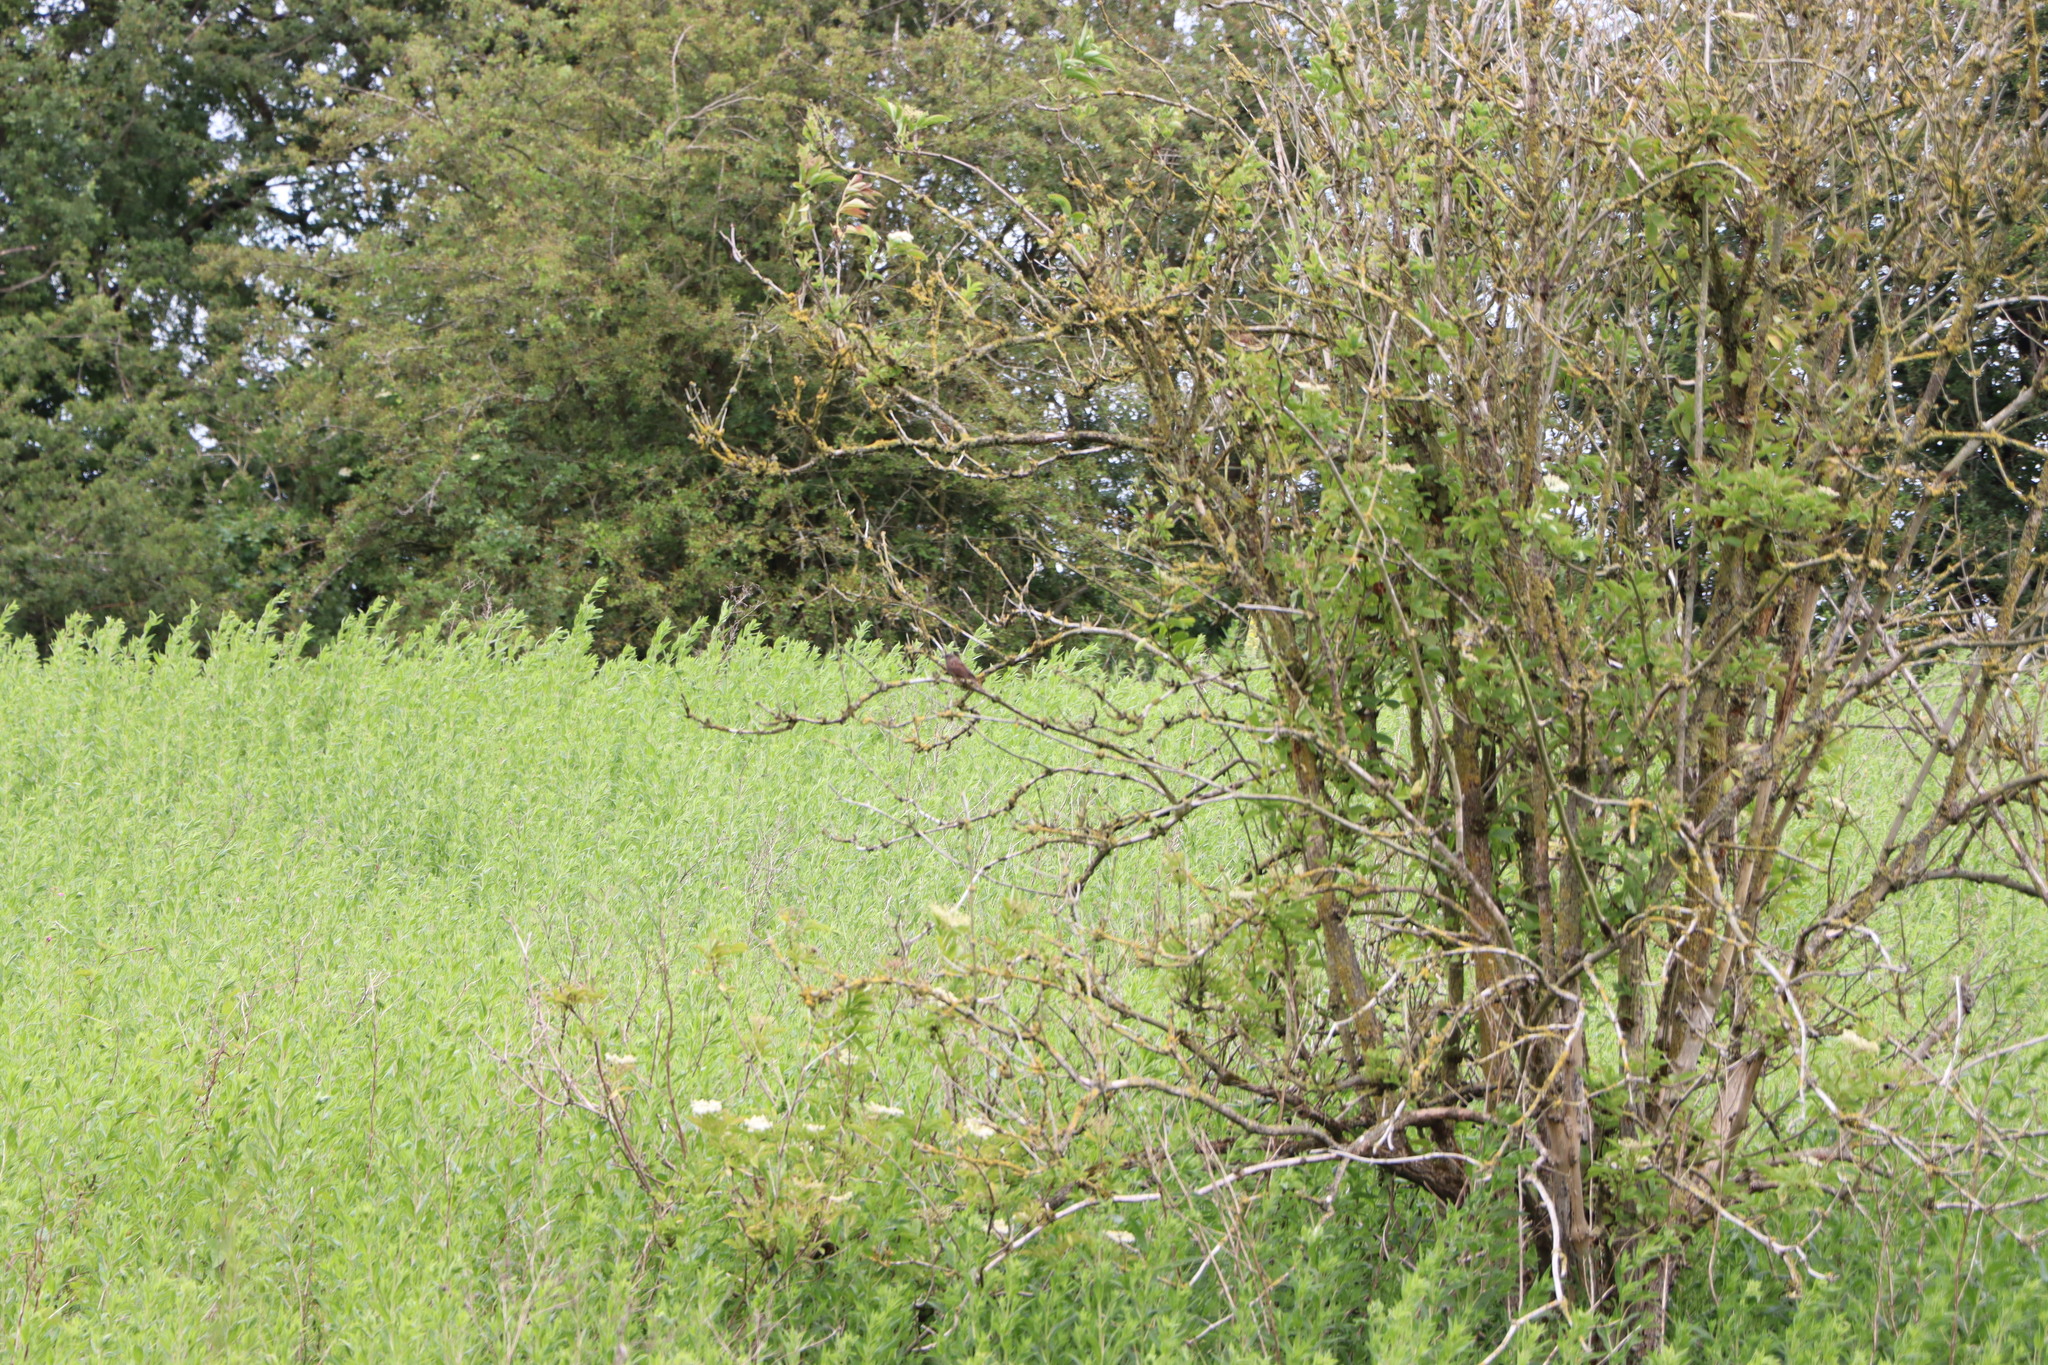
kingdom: Animalia
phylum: Chordata
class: Aves
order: Passeriformes
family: Prunellidae
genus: Prunella
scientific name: Prunella modularis
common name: Dunnock
